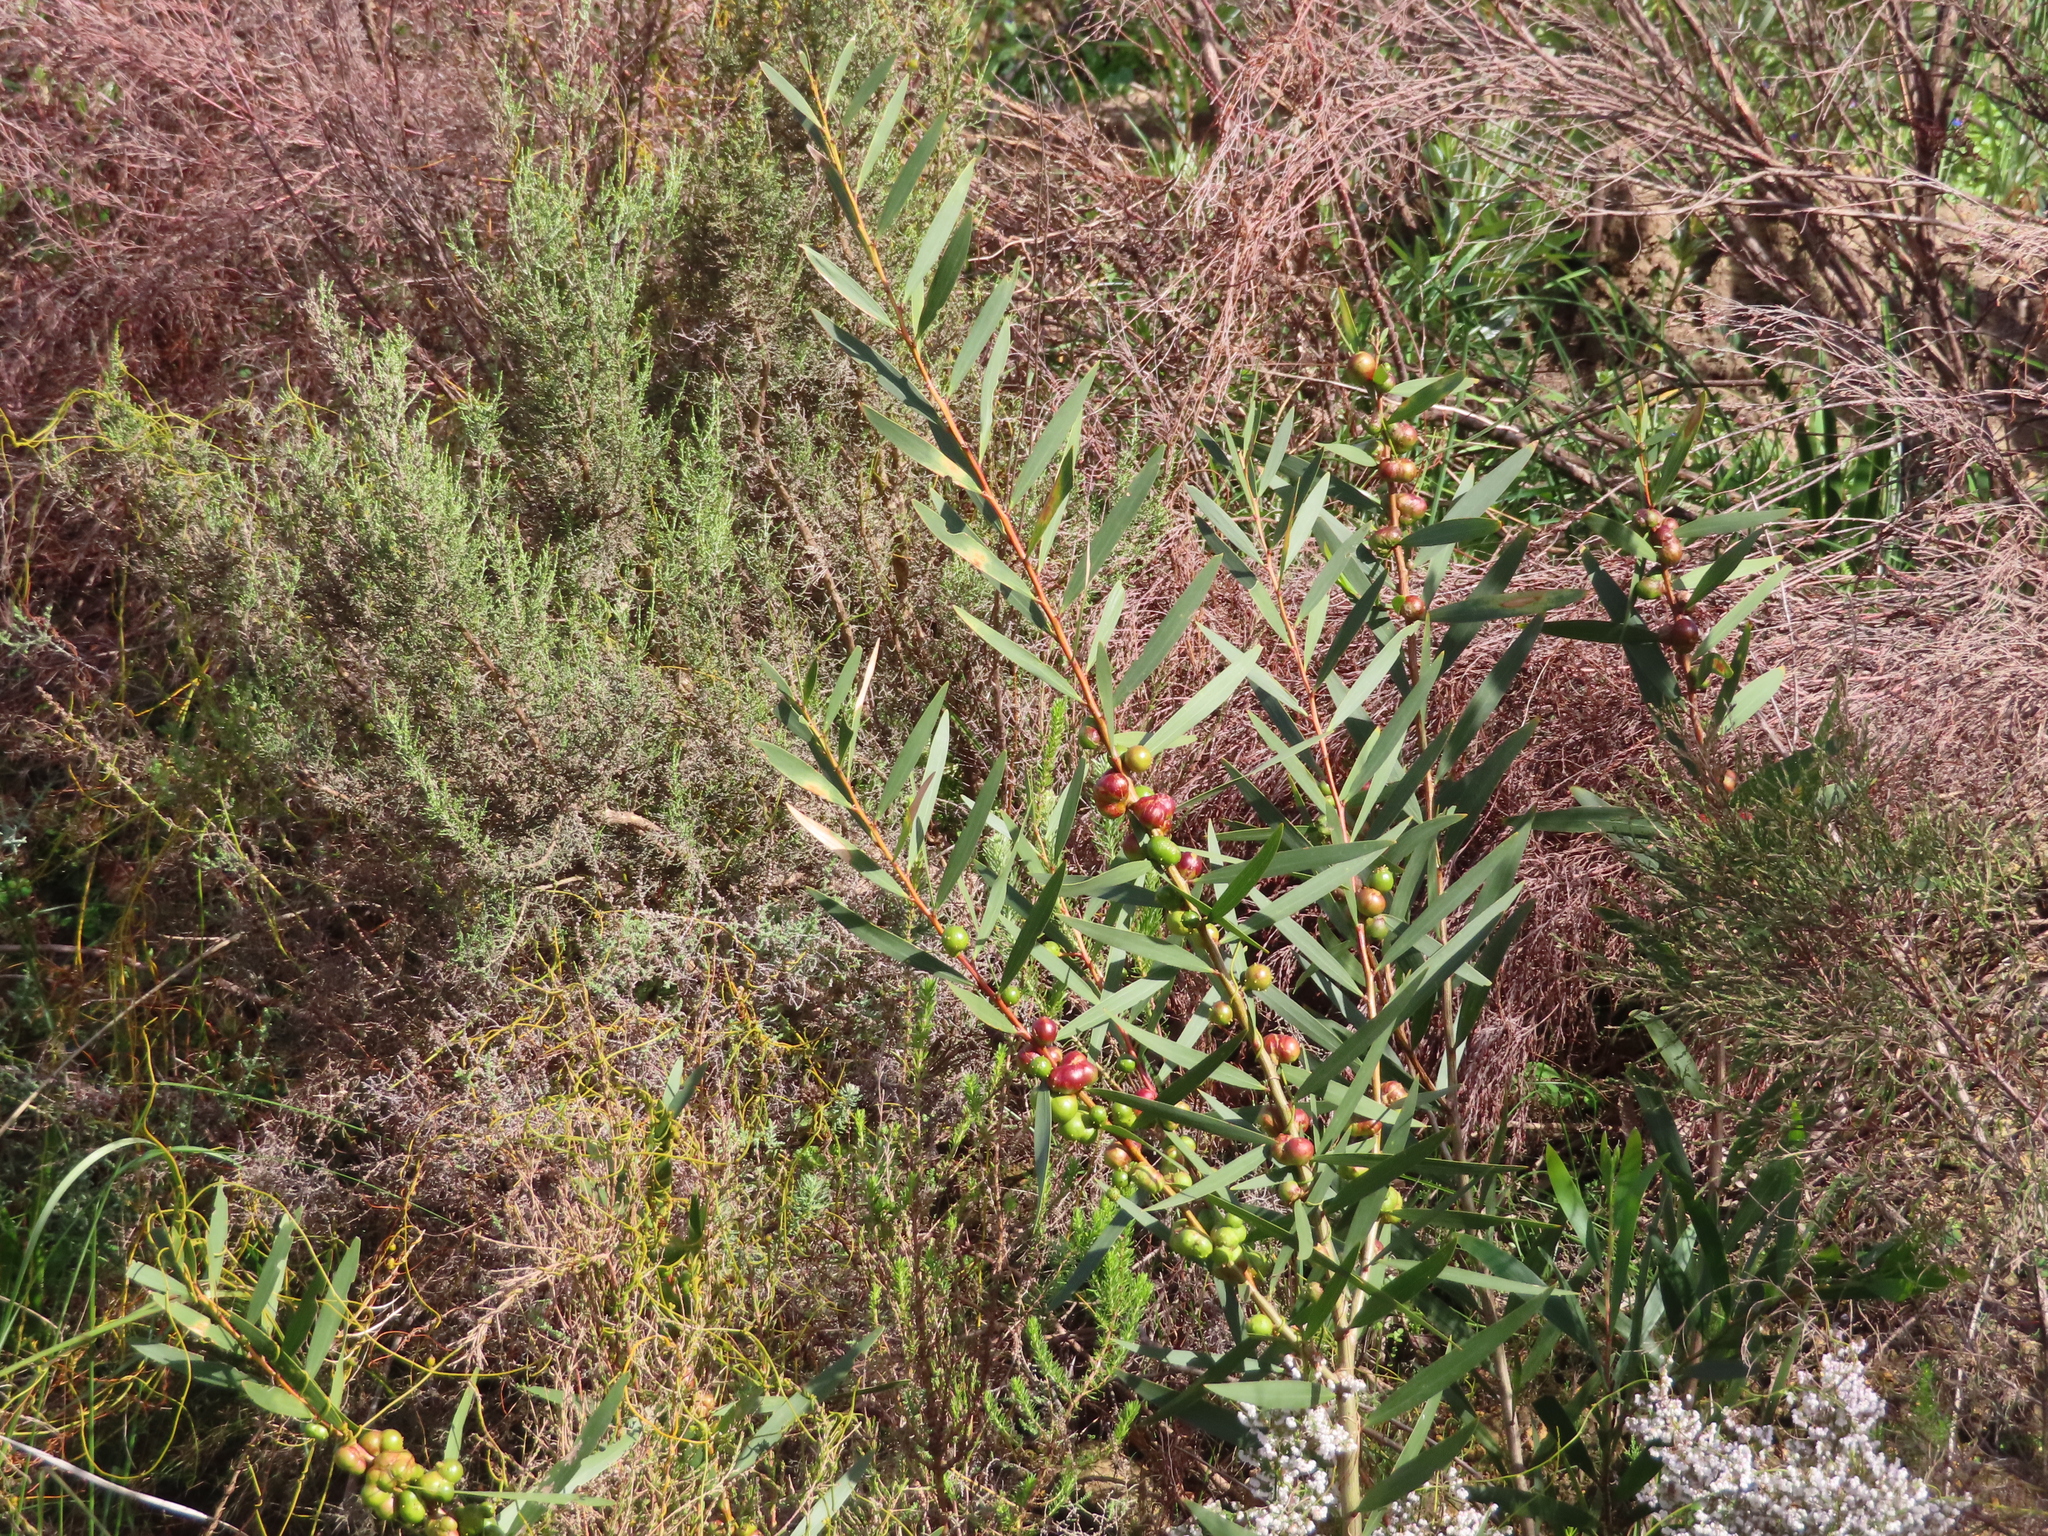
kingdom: Plantae
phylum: Tracheophyta
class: Magnoliopsida
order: Fabales
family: Fabaceae
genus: Acacia
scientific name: Acacia longifolia
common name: Sydney golden wattle
